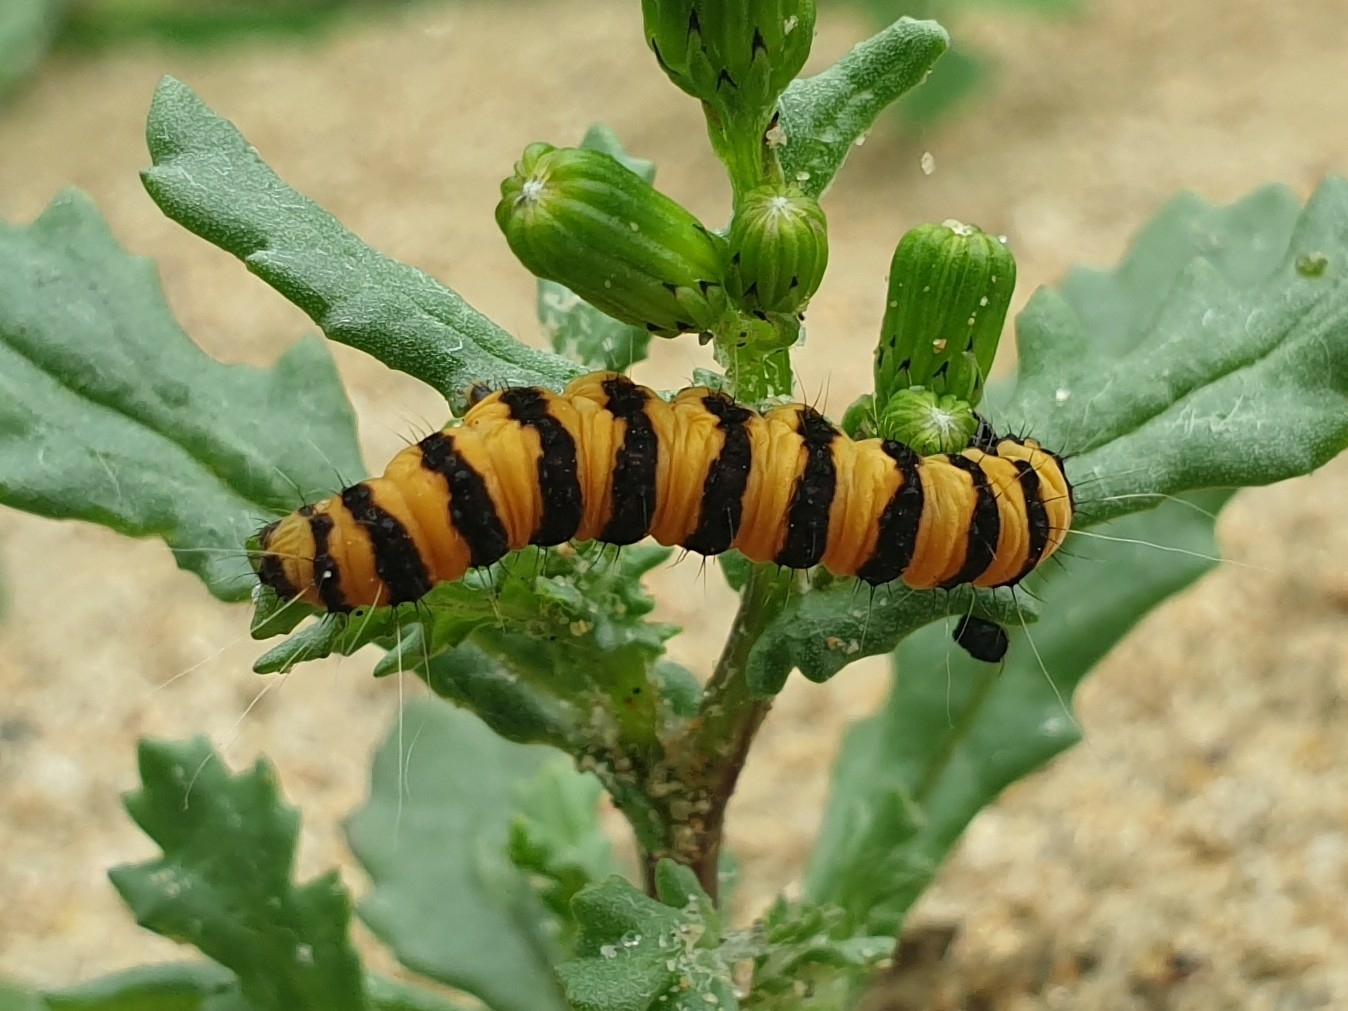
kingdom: Animalia
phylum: Arthropoda
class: Insecta
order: Lepidoptera
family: Erebidae
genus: Tyria
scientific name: Tyria jacobaeae
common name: Cinnabar
